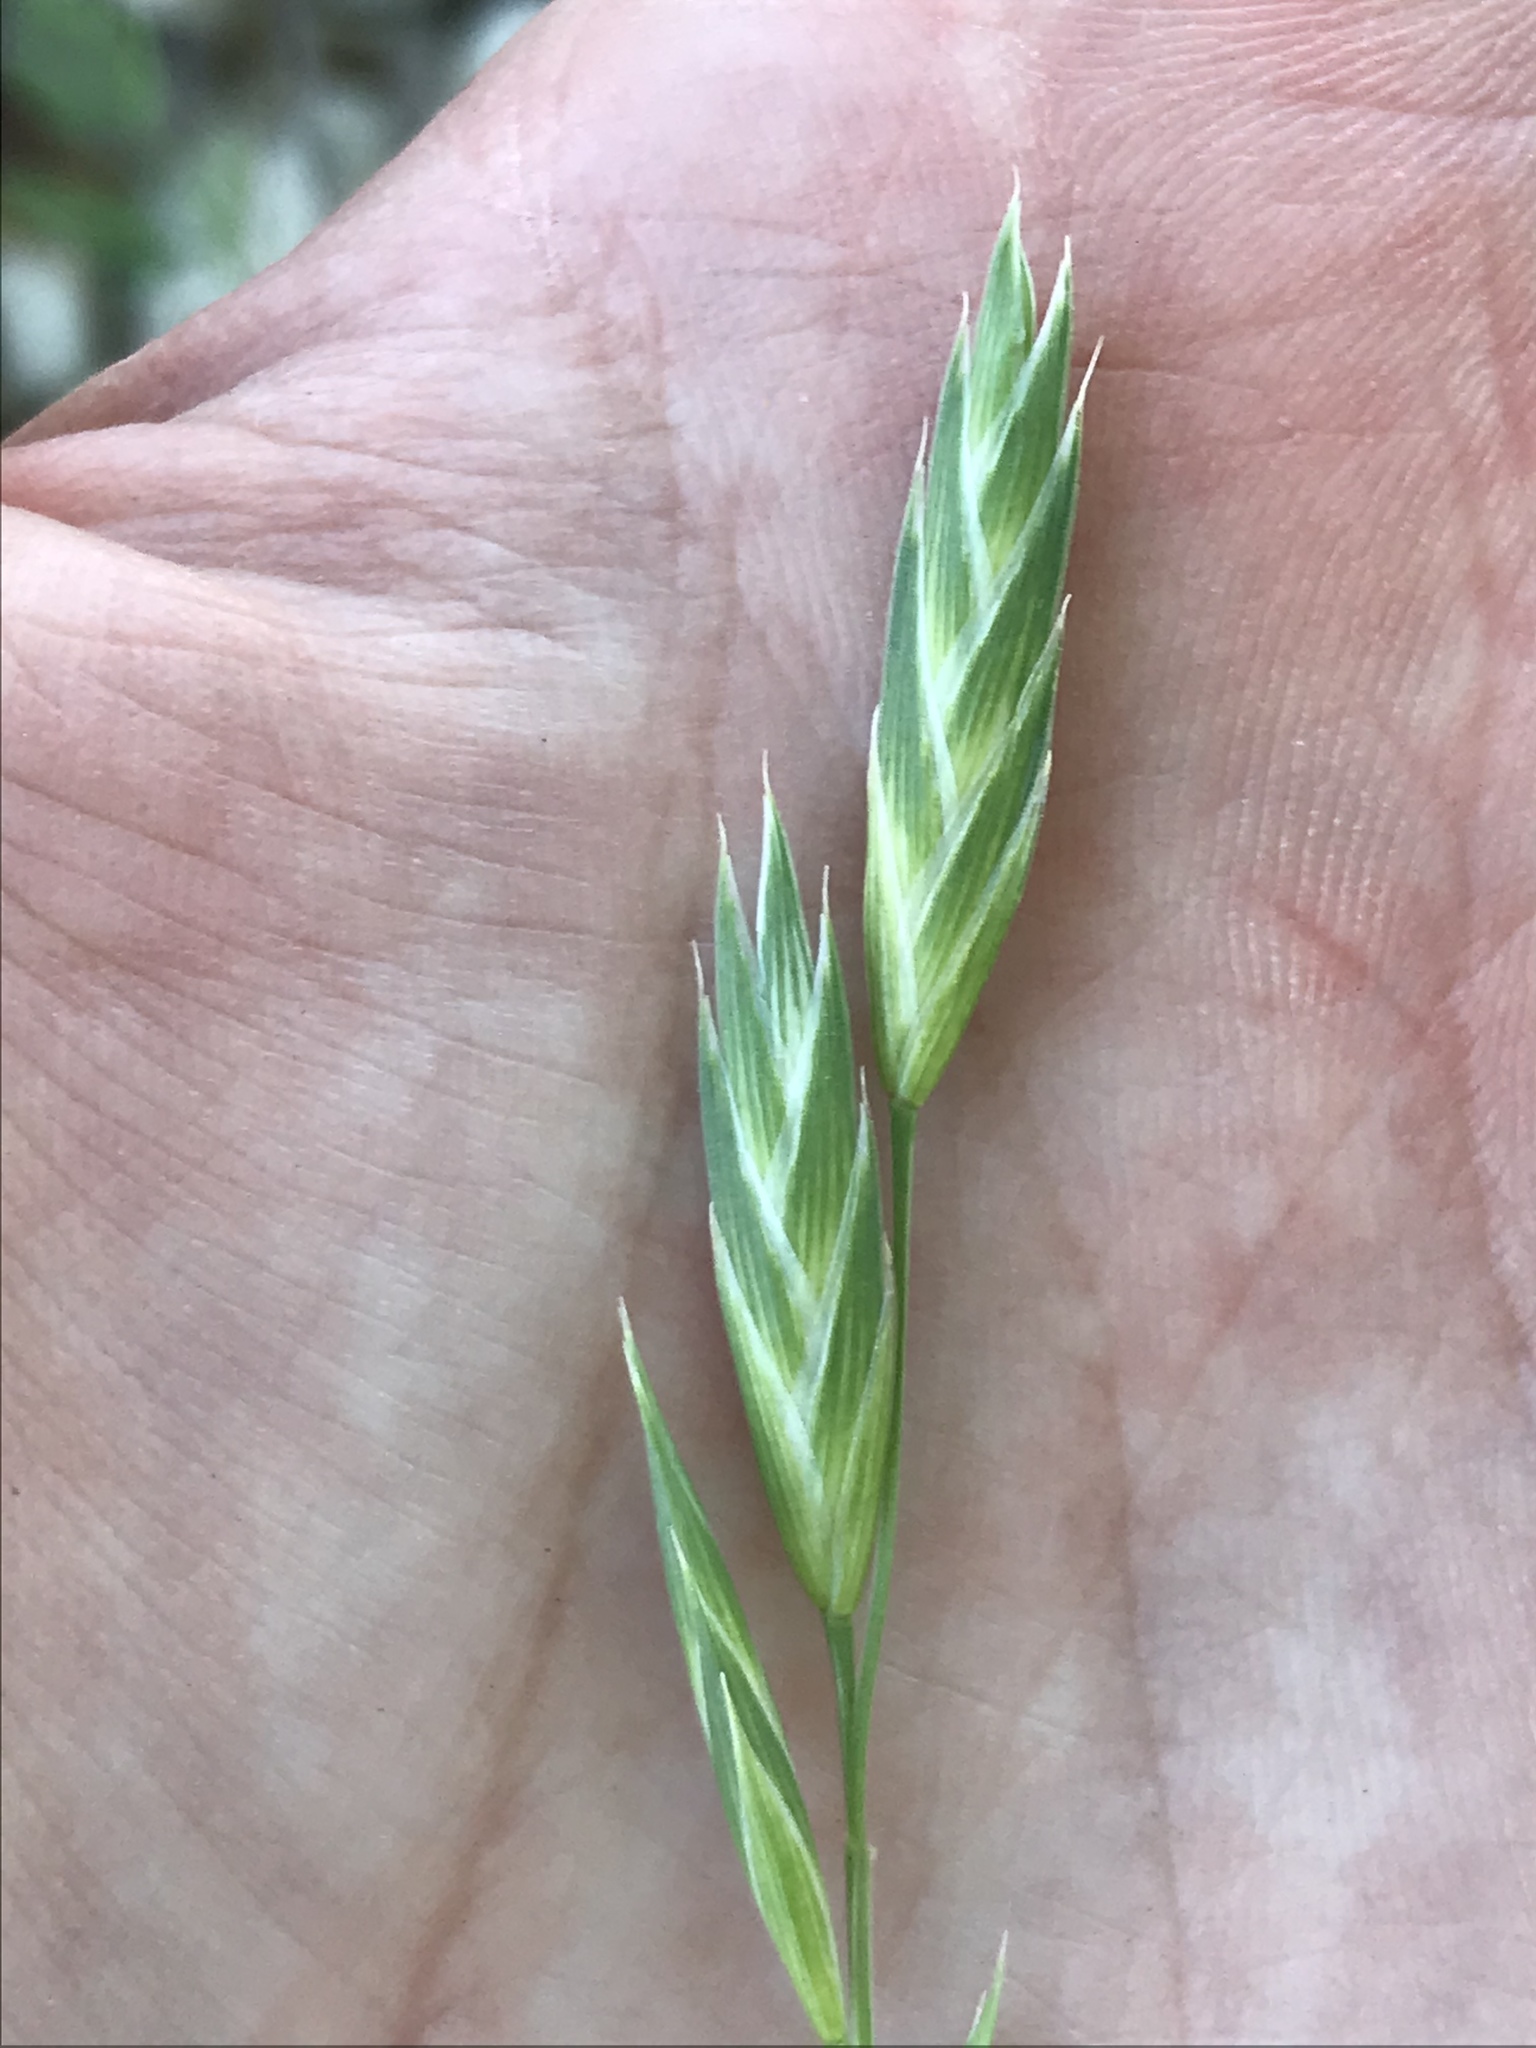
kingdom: Plantae
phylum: Tracheophyta
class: Liliopsida
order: Poales
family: Poaceae
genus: Bromus
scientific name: Bromus catharticus
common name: Rescuegrass
